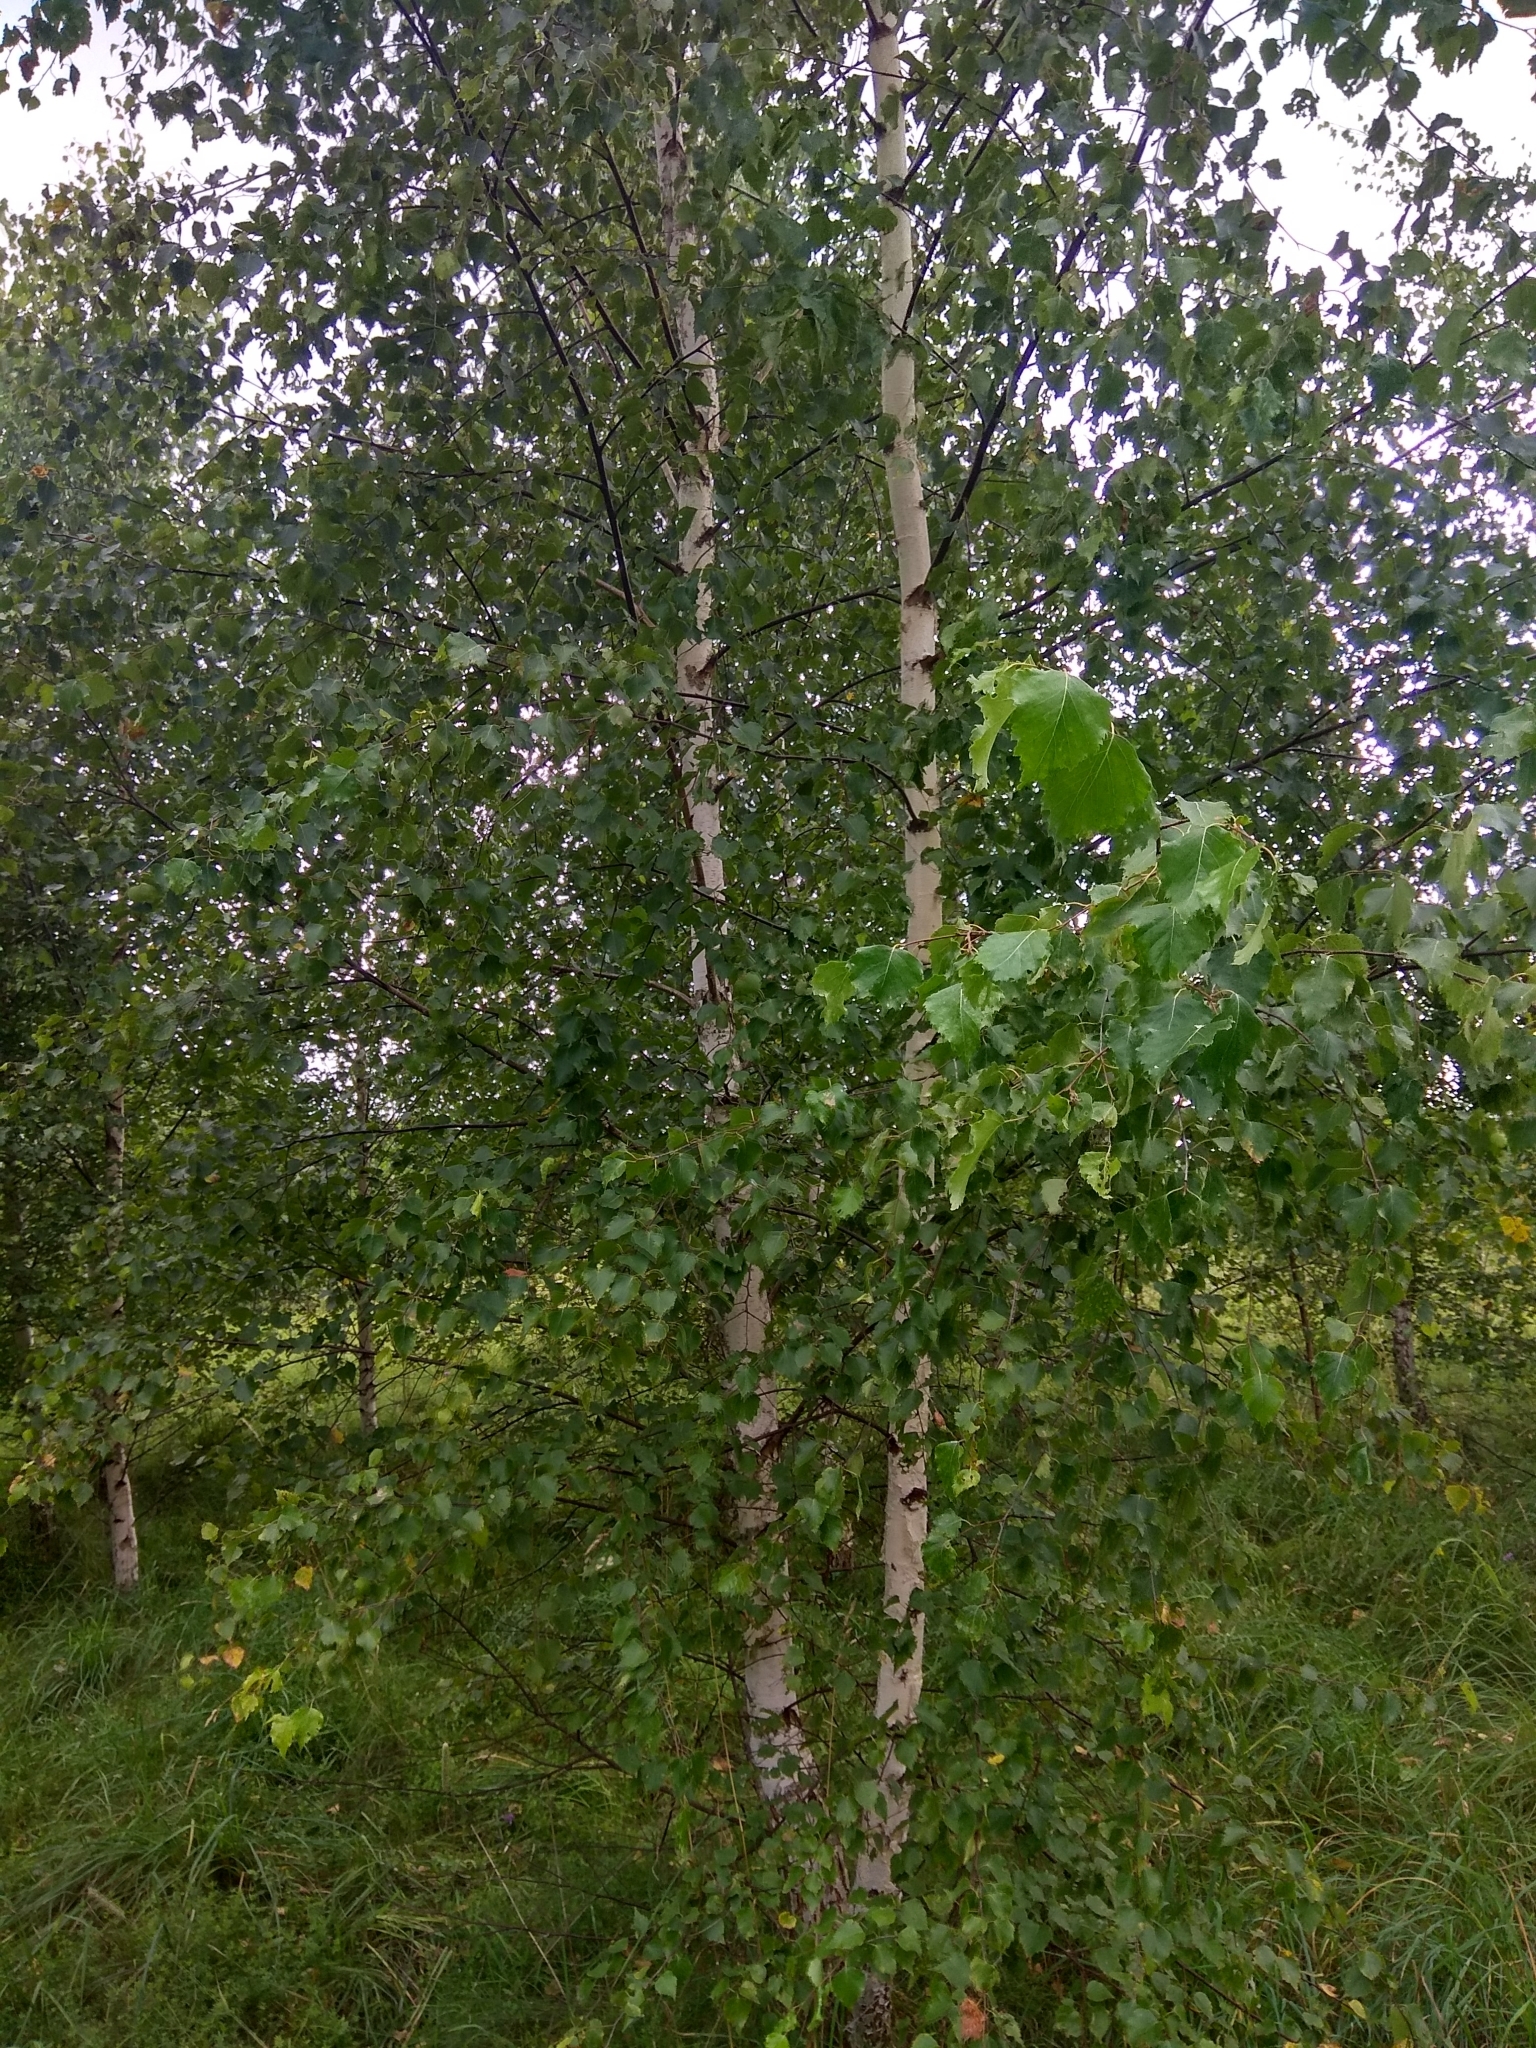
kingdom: Plantae
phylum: Tracheophyta
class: Magnoliopsida
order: Fagales
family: Betulaceae
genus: Betula
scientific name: Betula pendula
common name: Silver birch
